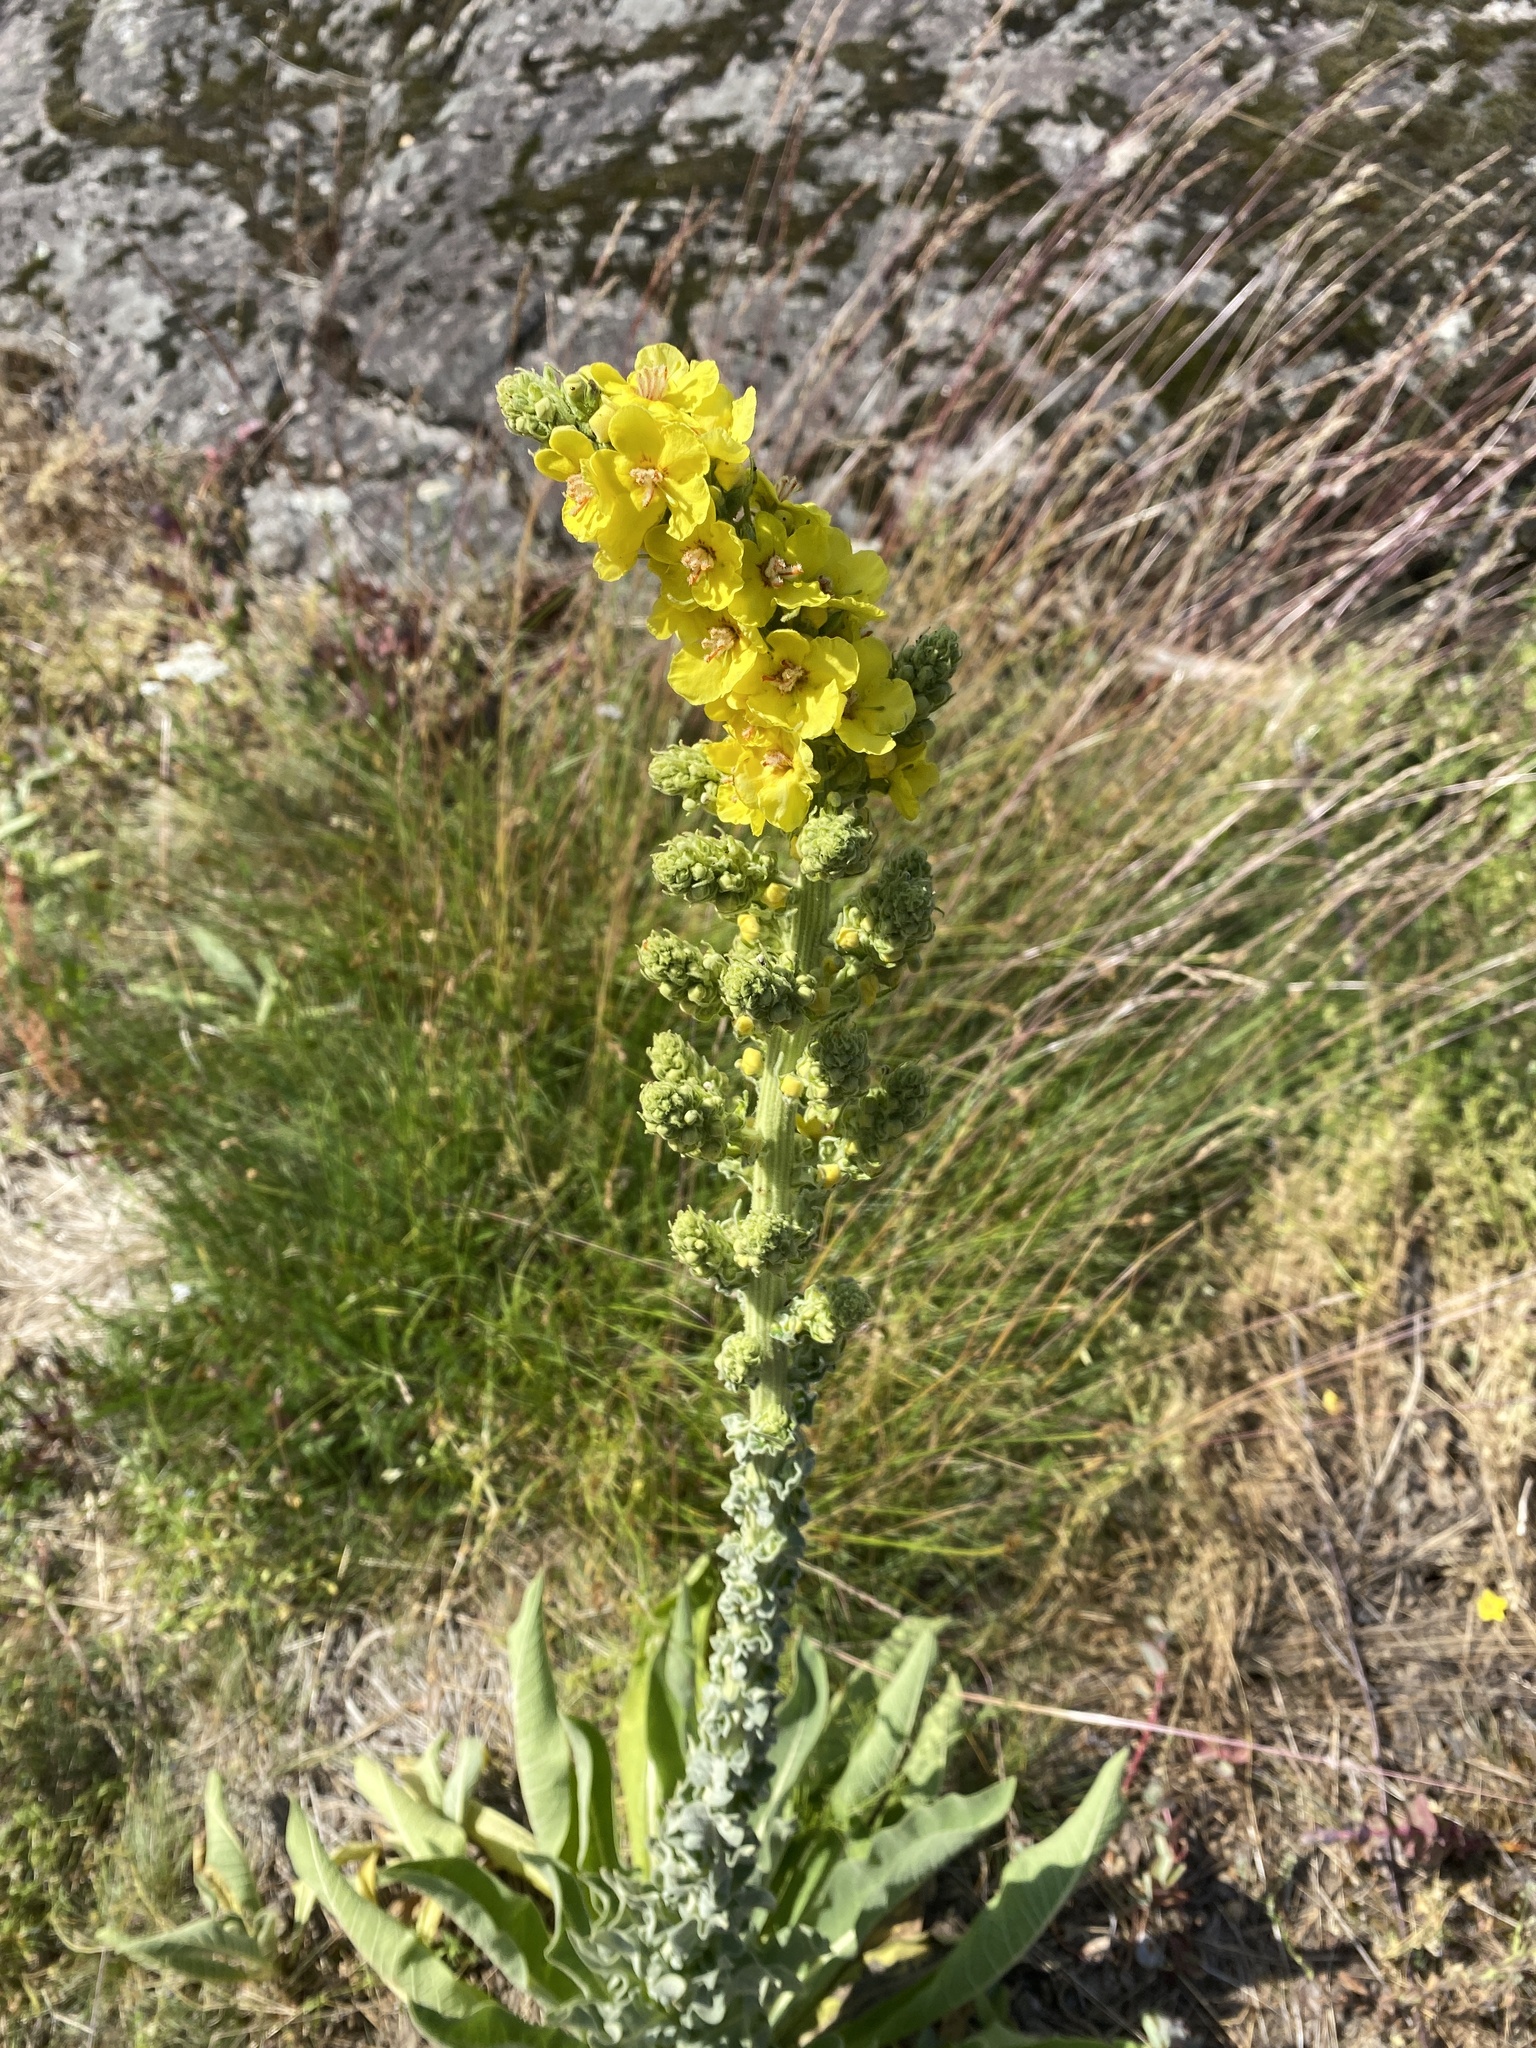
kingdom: Plantae
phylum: Tracheophyta
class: Magnoliopsida
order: Lamiales
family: Scrophulariaceae
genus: Verbascum
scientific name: Verbascum speciosum
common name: Hungarian mullein
